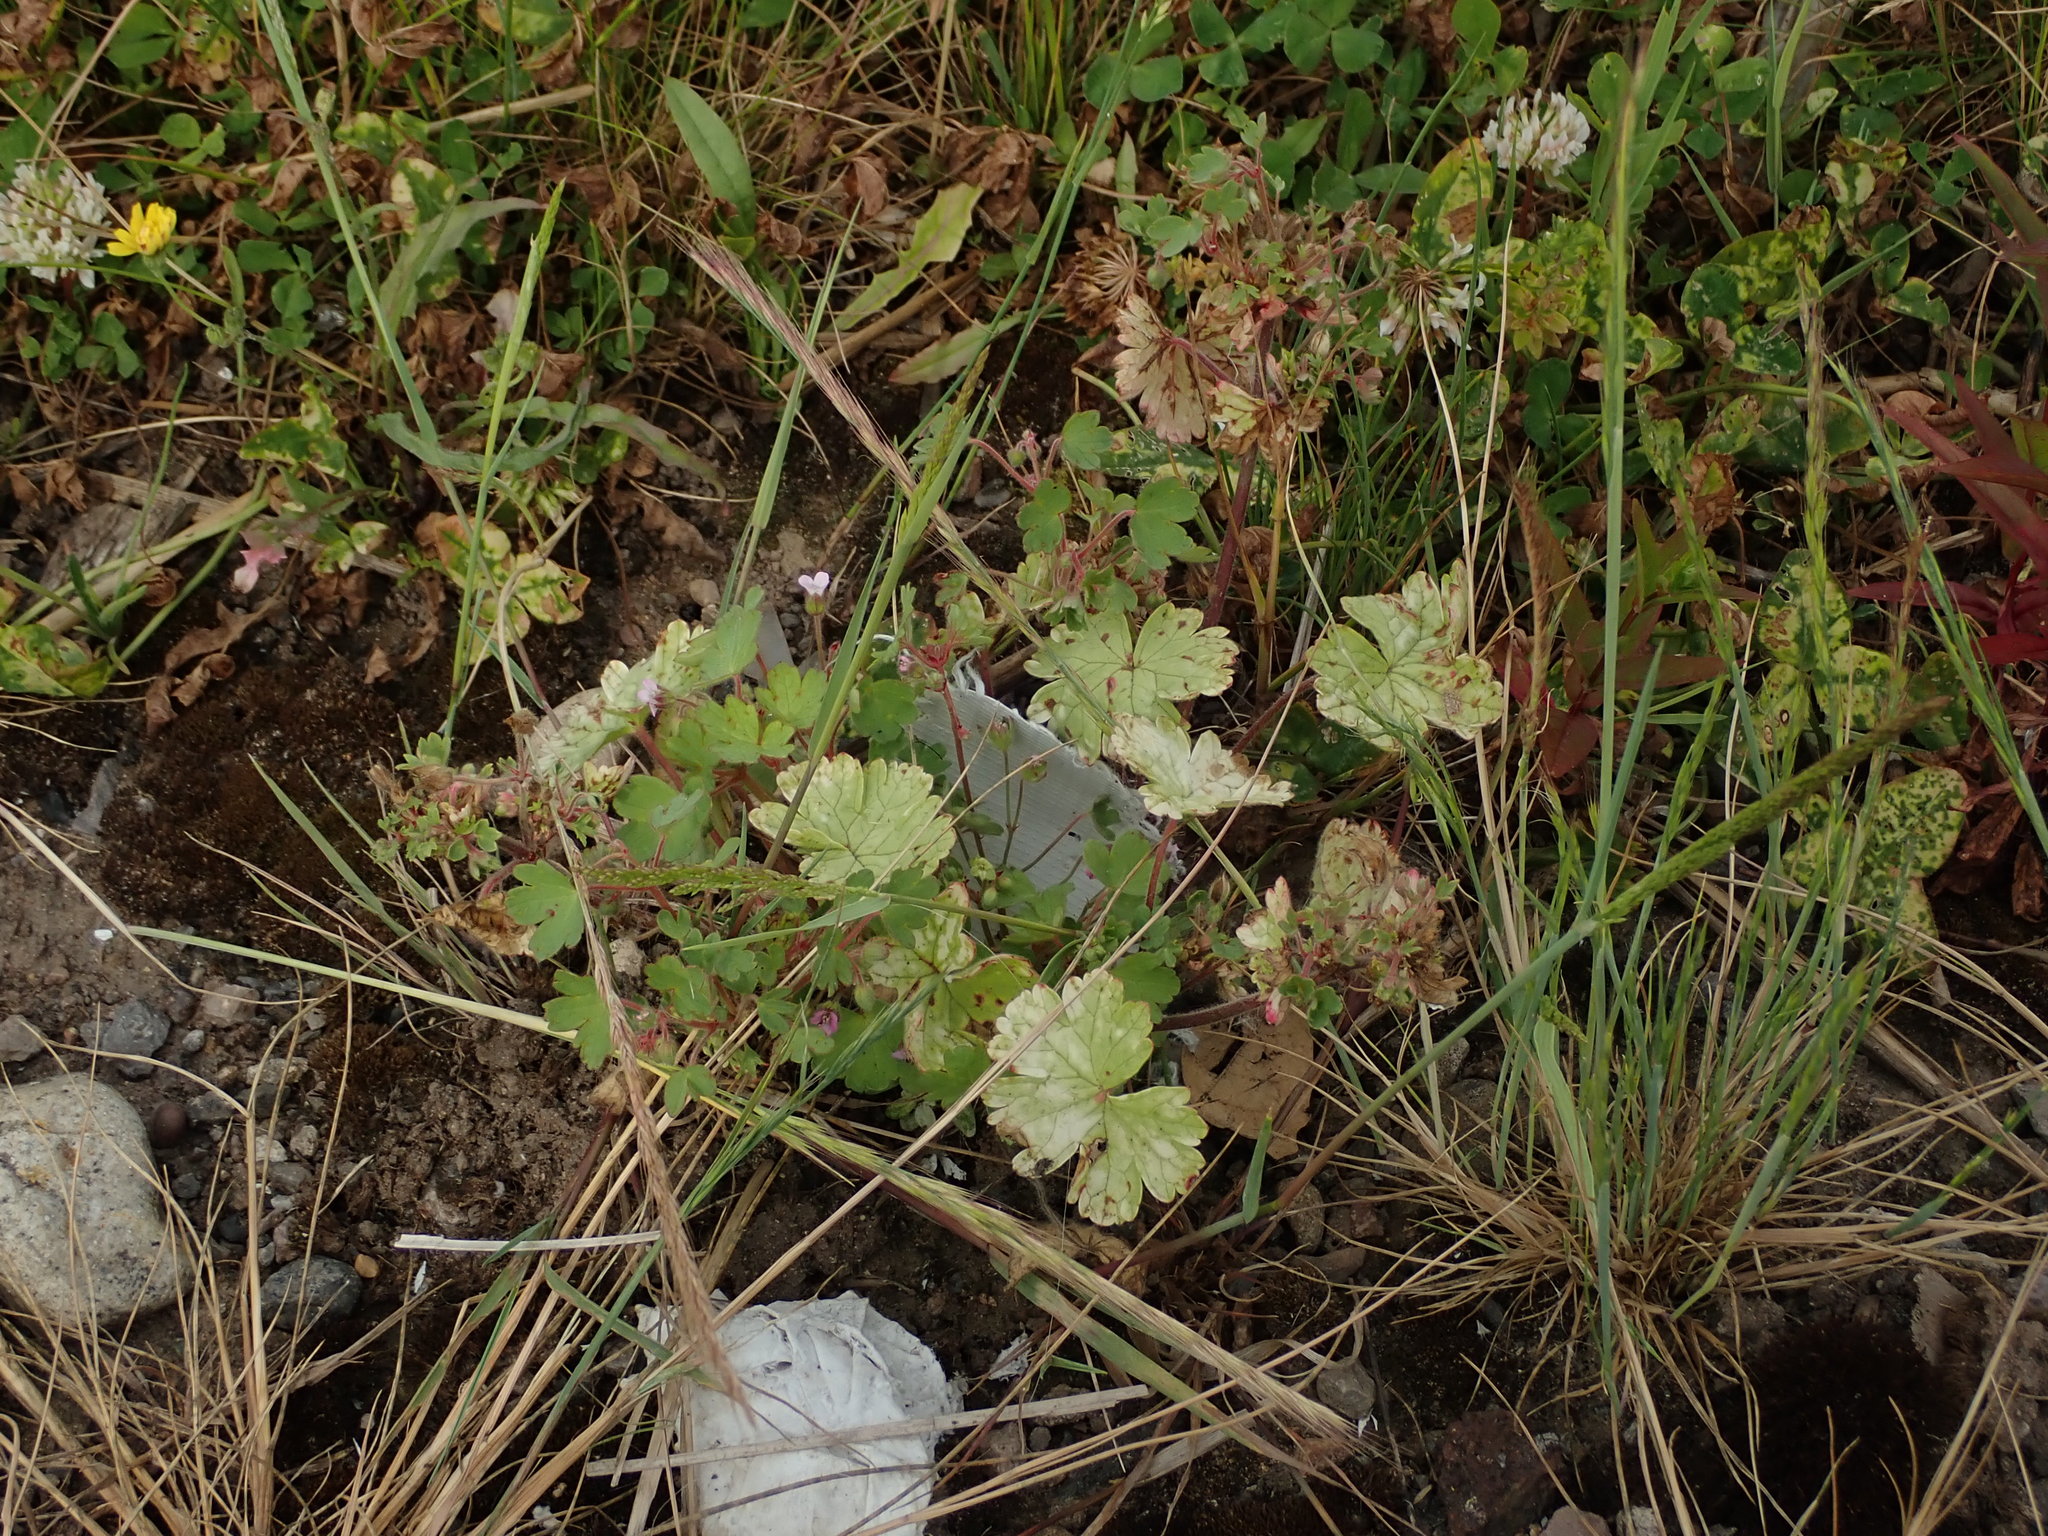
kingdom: Plantae
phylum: Tracheophyta
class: Magnoliopsida
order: Geraniales
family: Geraniaceae
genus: Geranium
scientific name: Geranium rotundifolium
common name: Round-leaved crane's-bill
